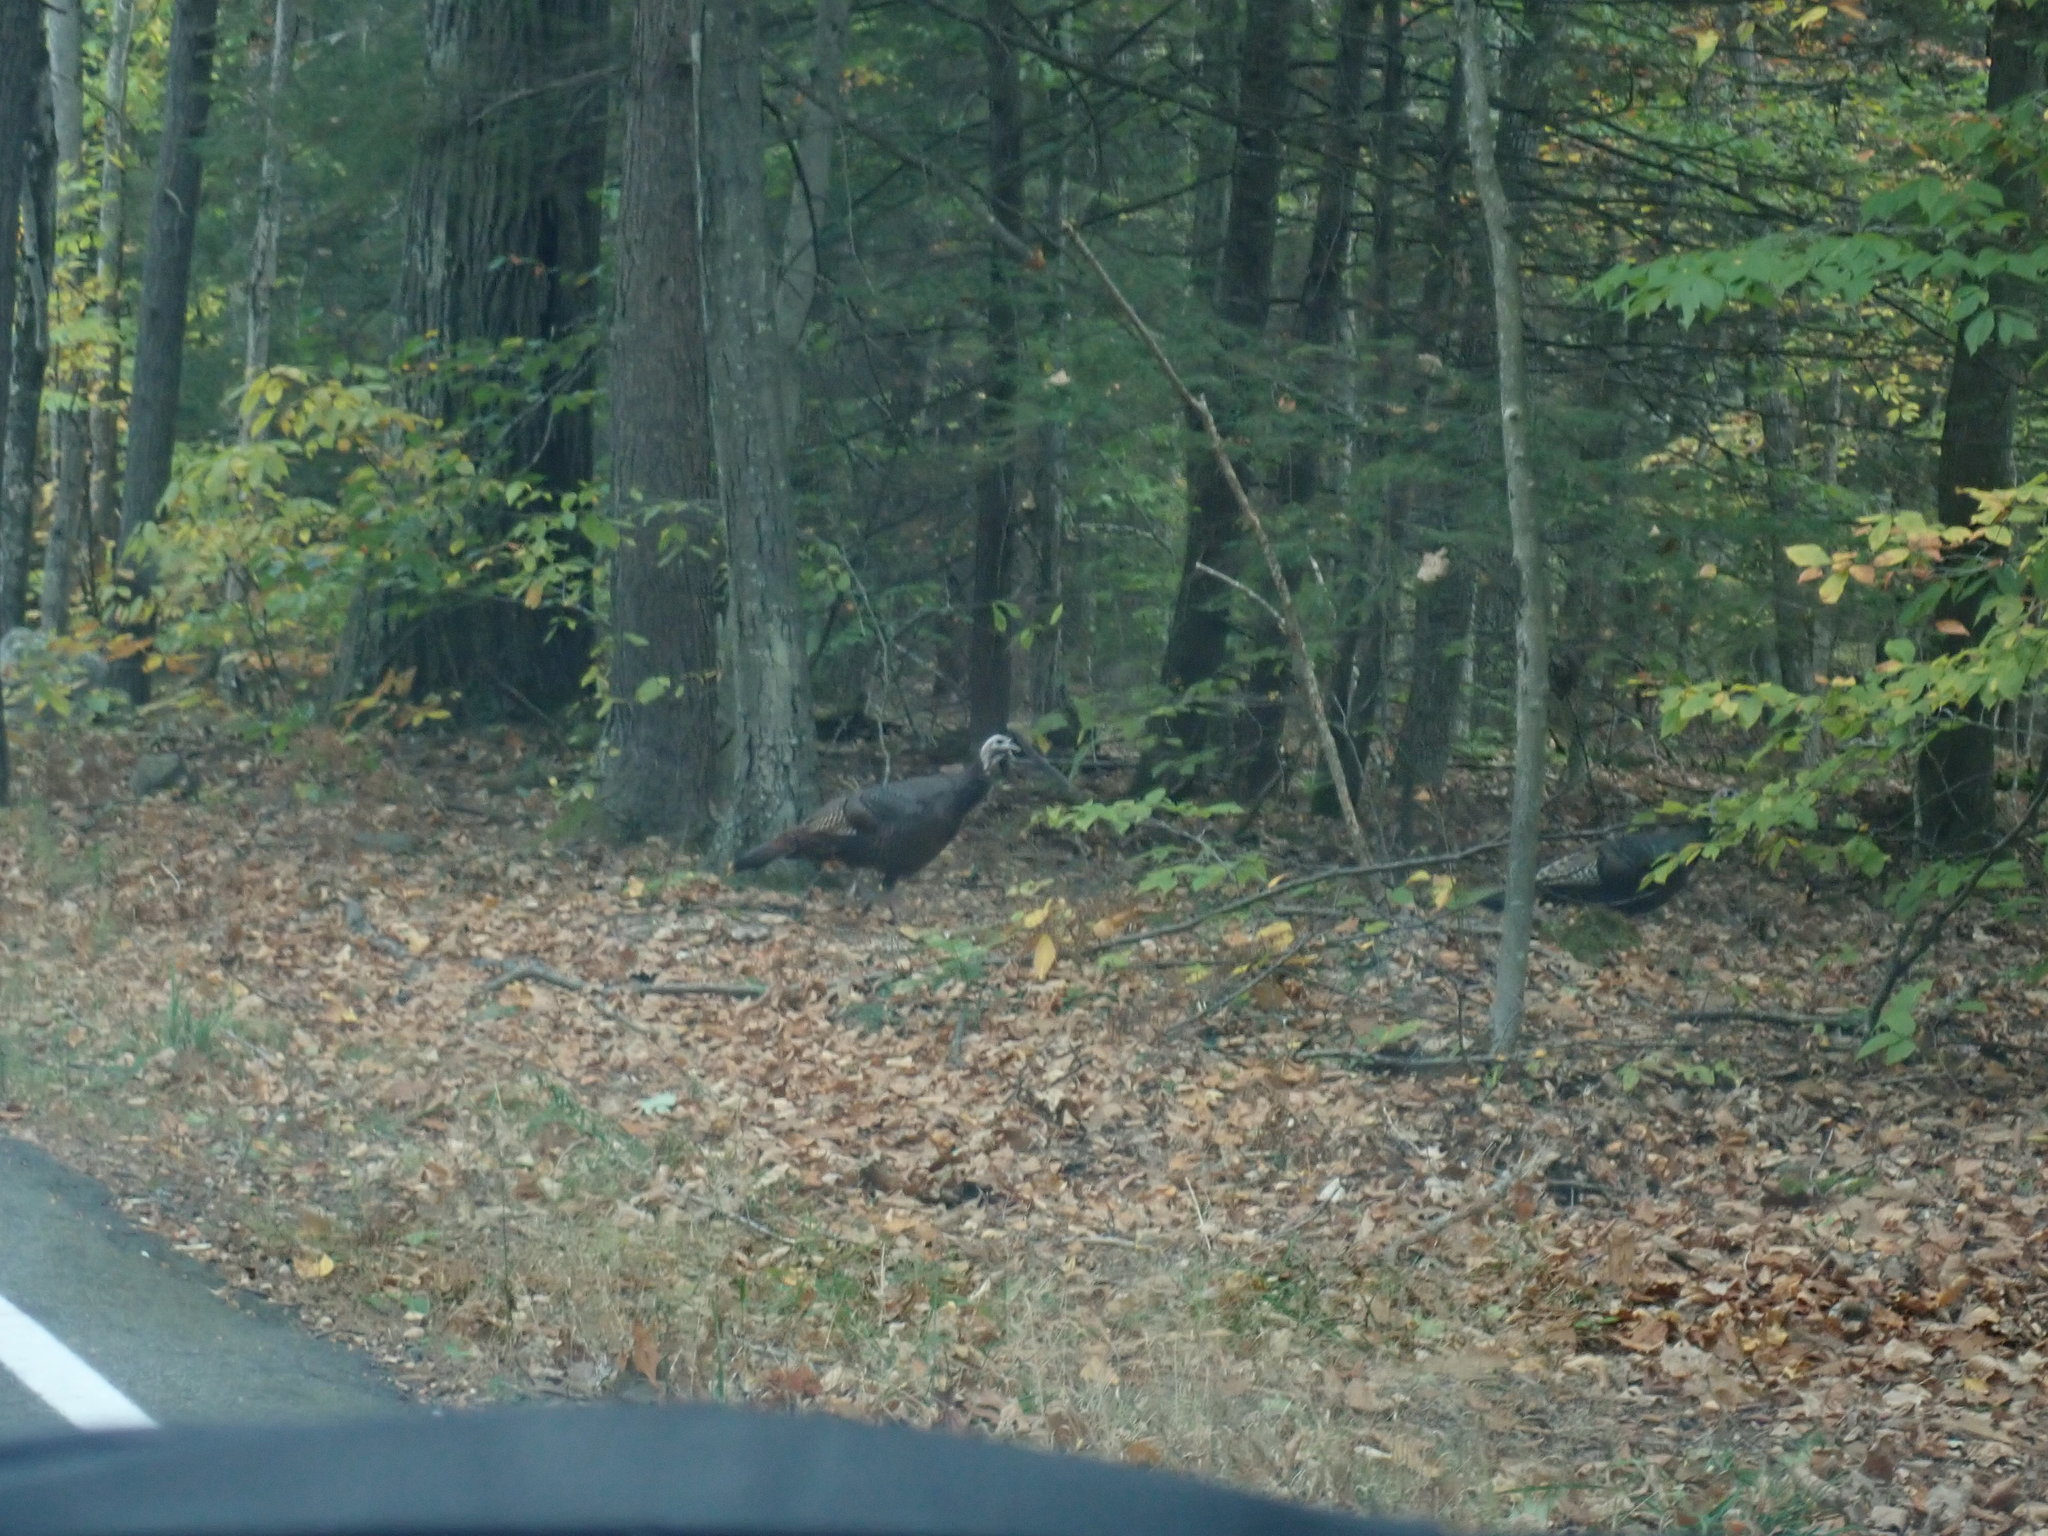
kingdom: Animalia
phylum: Chordata
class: Aves
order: Galliformes
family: Phasianidae
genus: Meleagris
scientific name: Meleagris gallopavo
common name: Wild turkey
